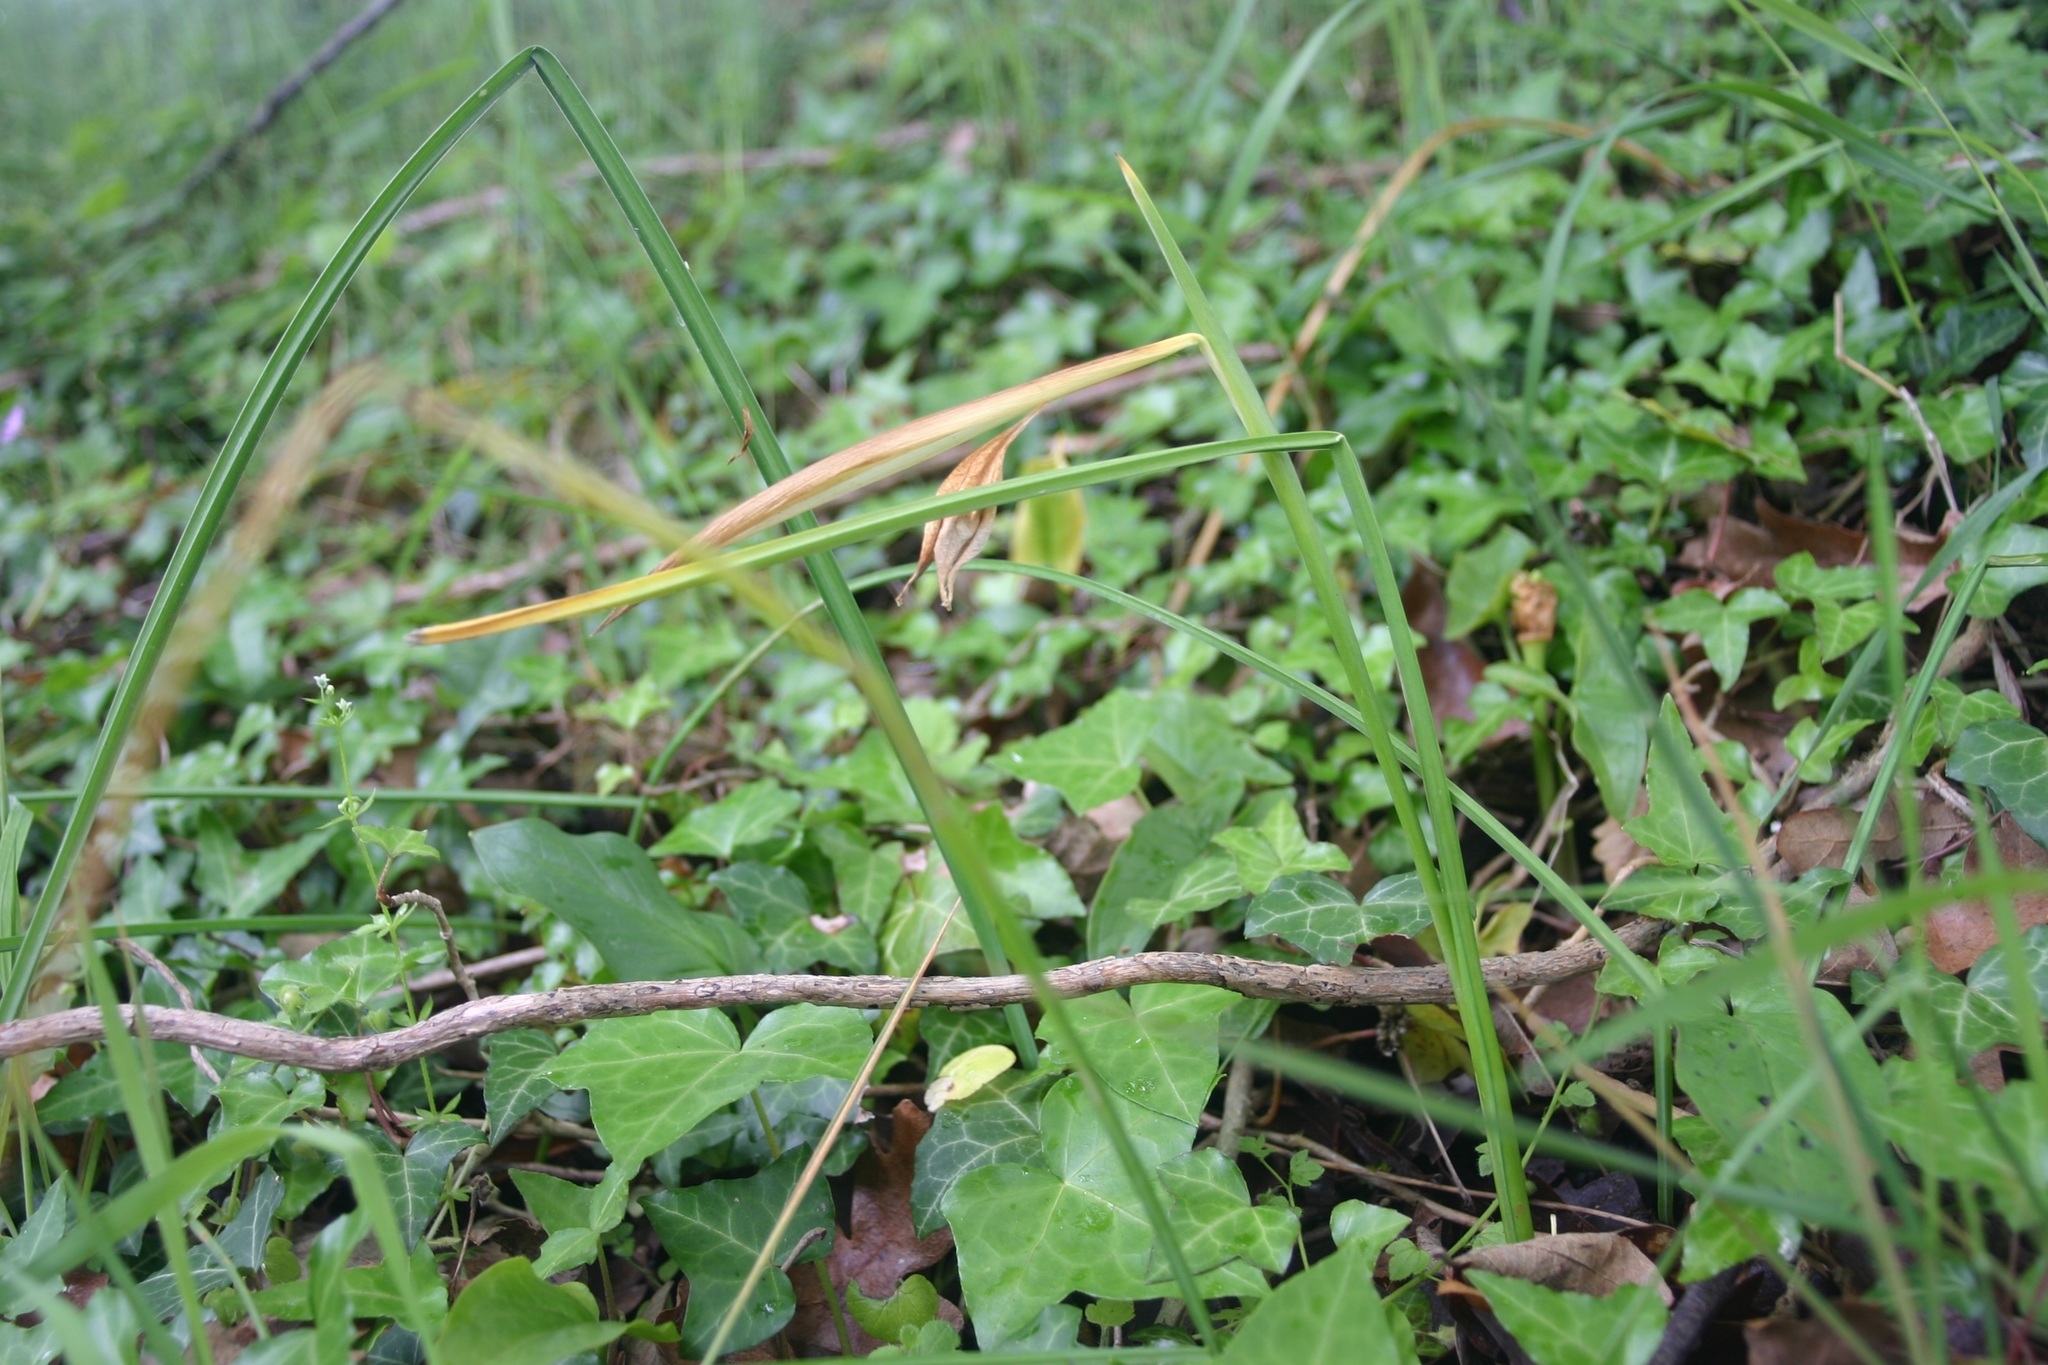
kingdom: Plantae
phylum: Tracheophyta
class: Liliopsida
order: Asparagales
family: Iridaceae
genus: Iris
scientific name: Iris tuberosa
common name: Snake's-head iris
